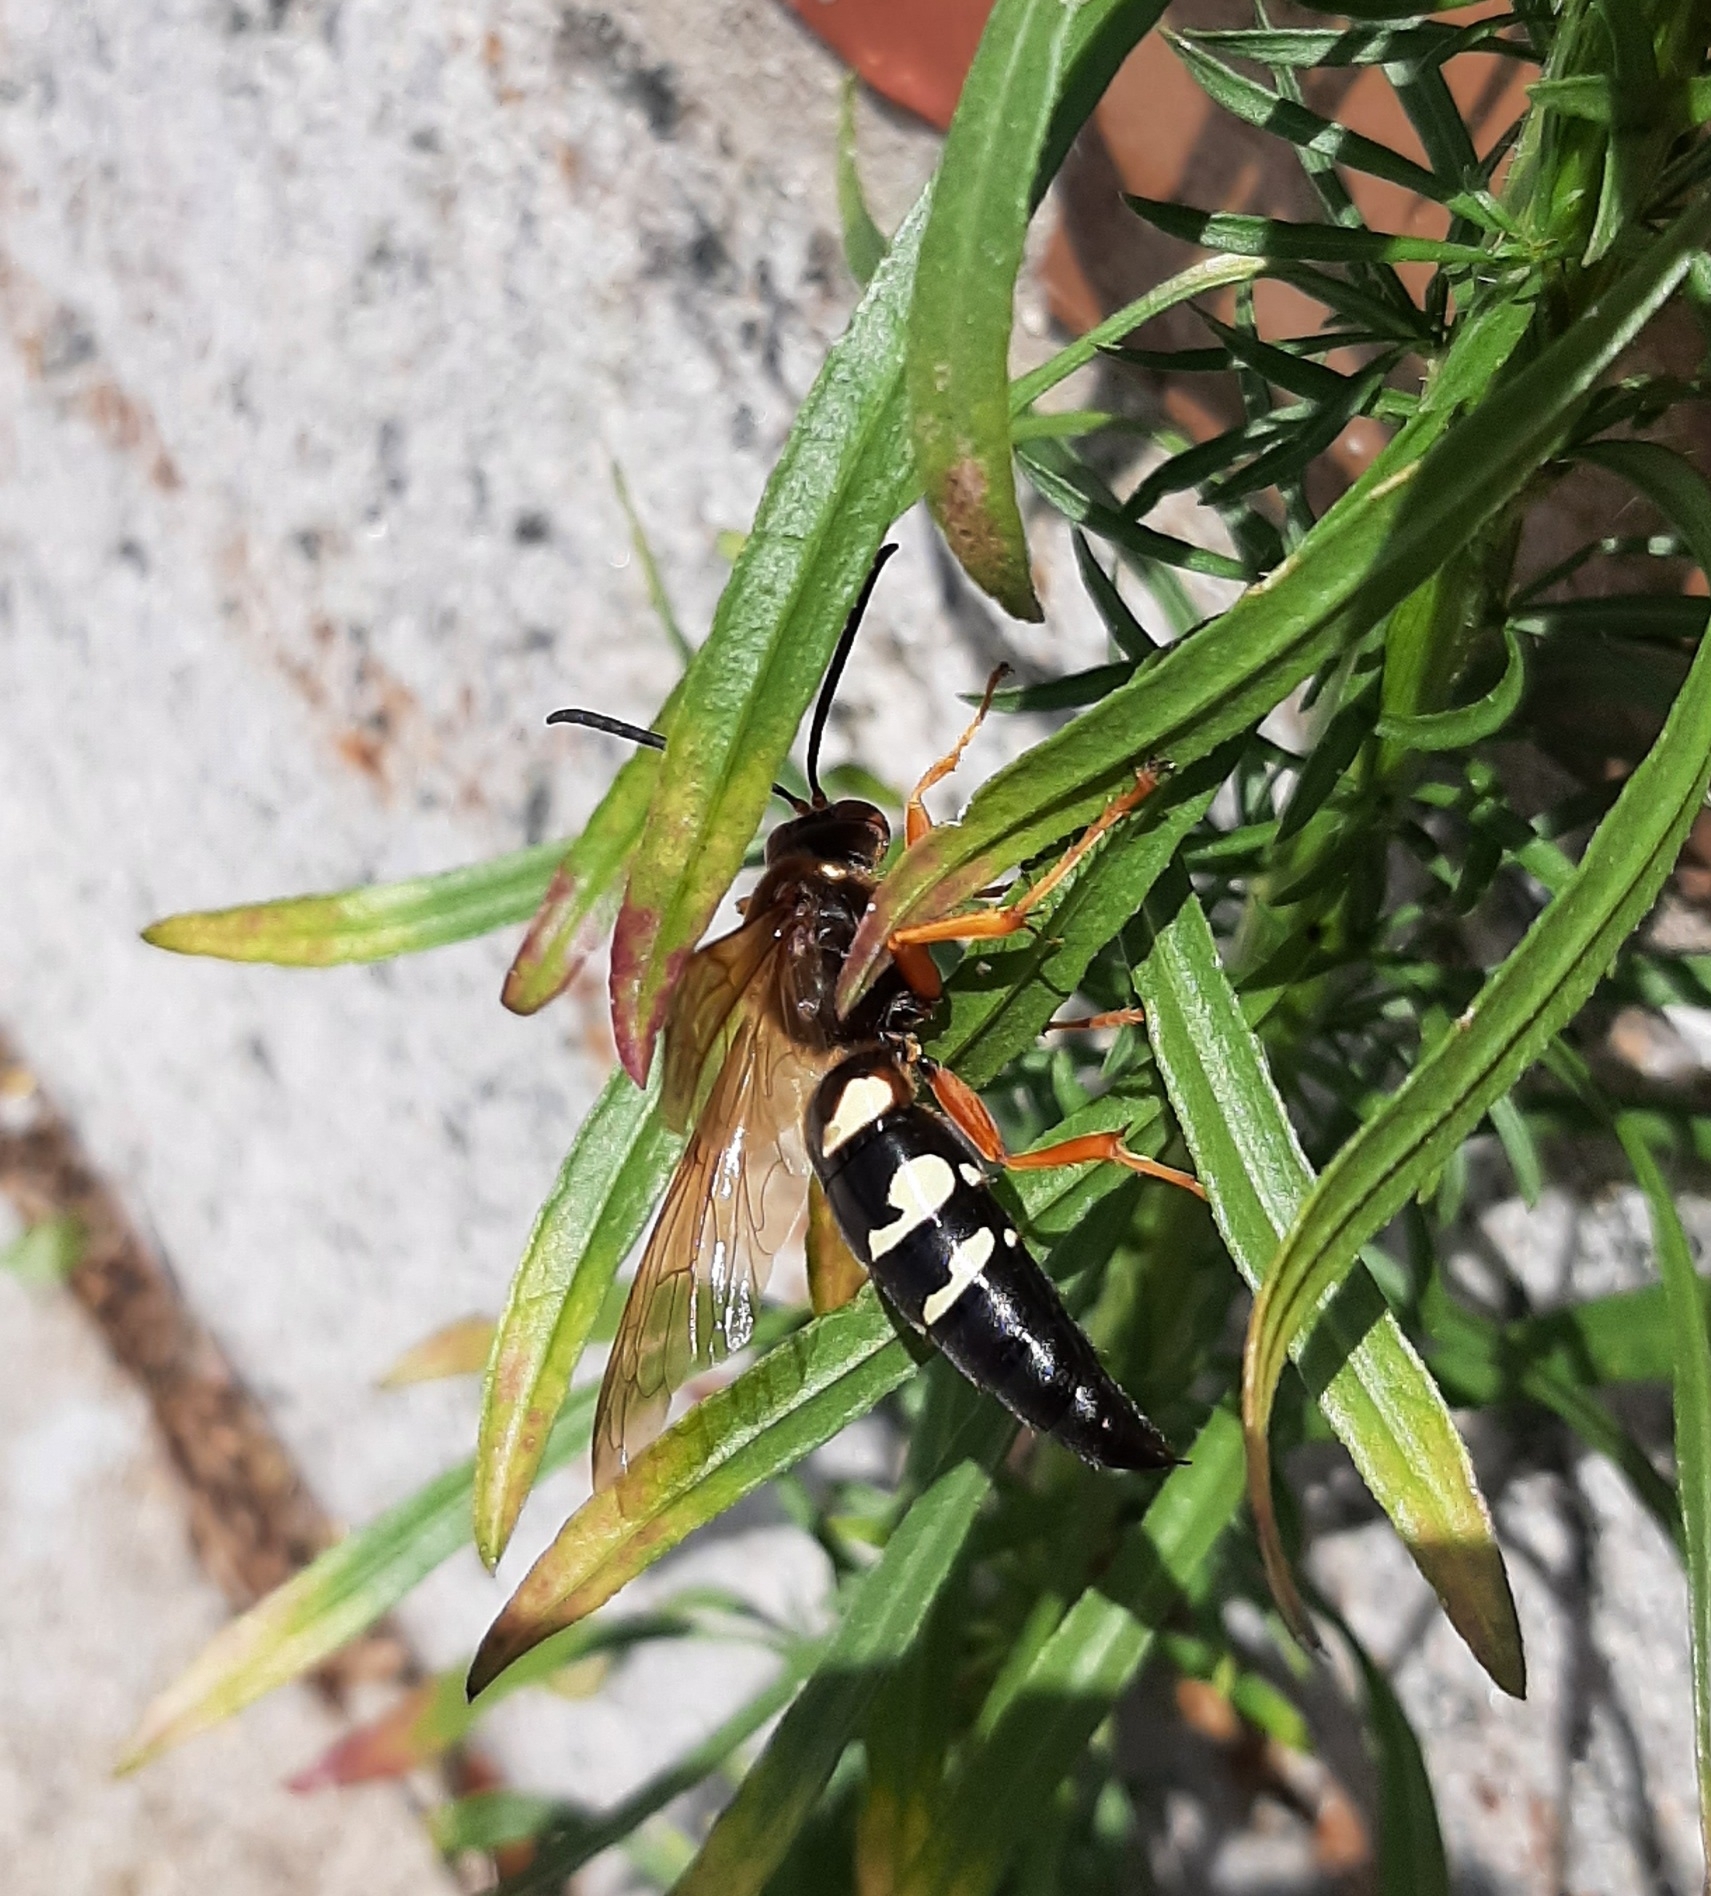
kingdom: Animalia
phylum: Arthropoda
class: Insecta
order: Hymenoptera
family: Crabronidae
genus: Sphecius
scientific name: Sphecius speciosus
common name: Cicada killer
